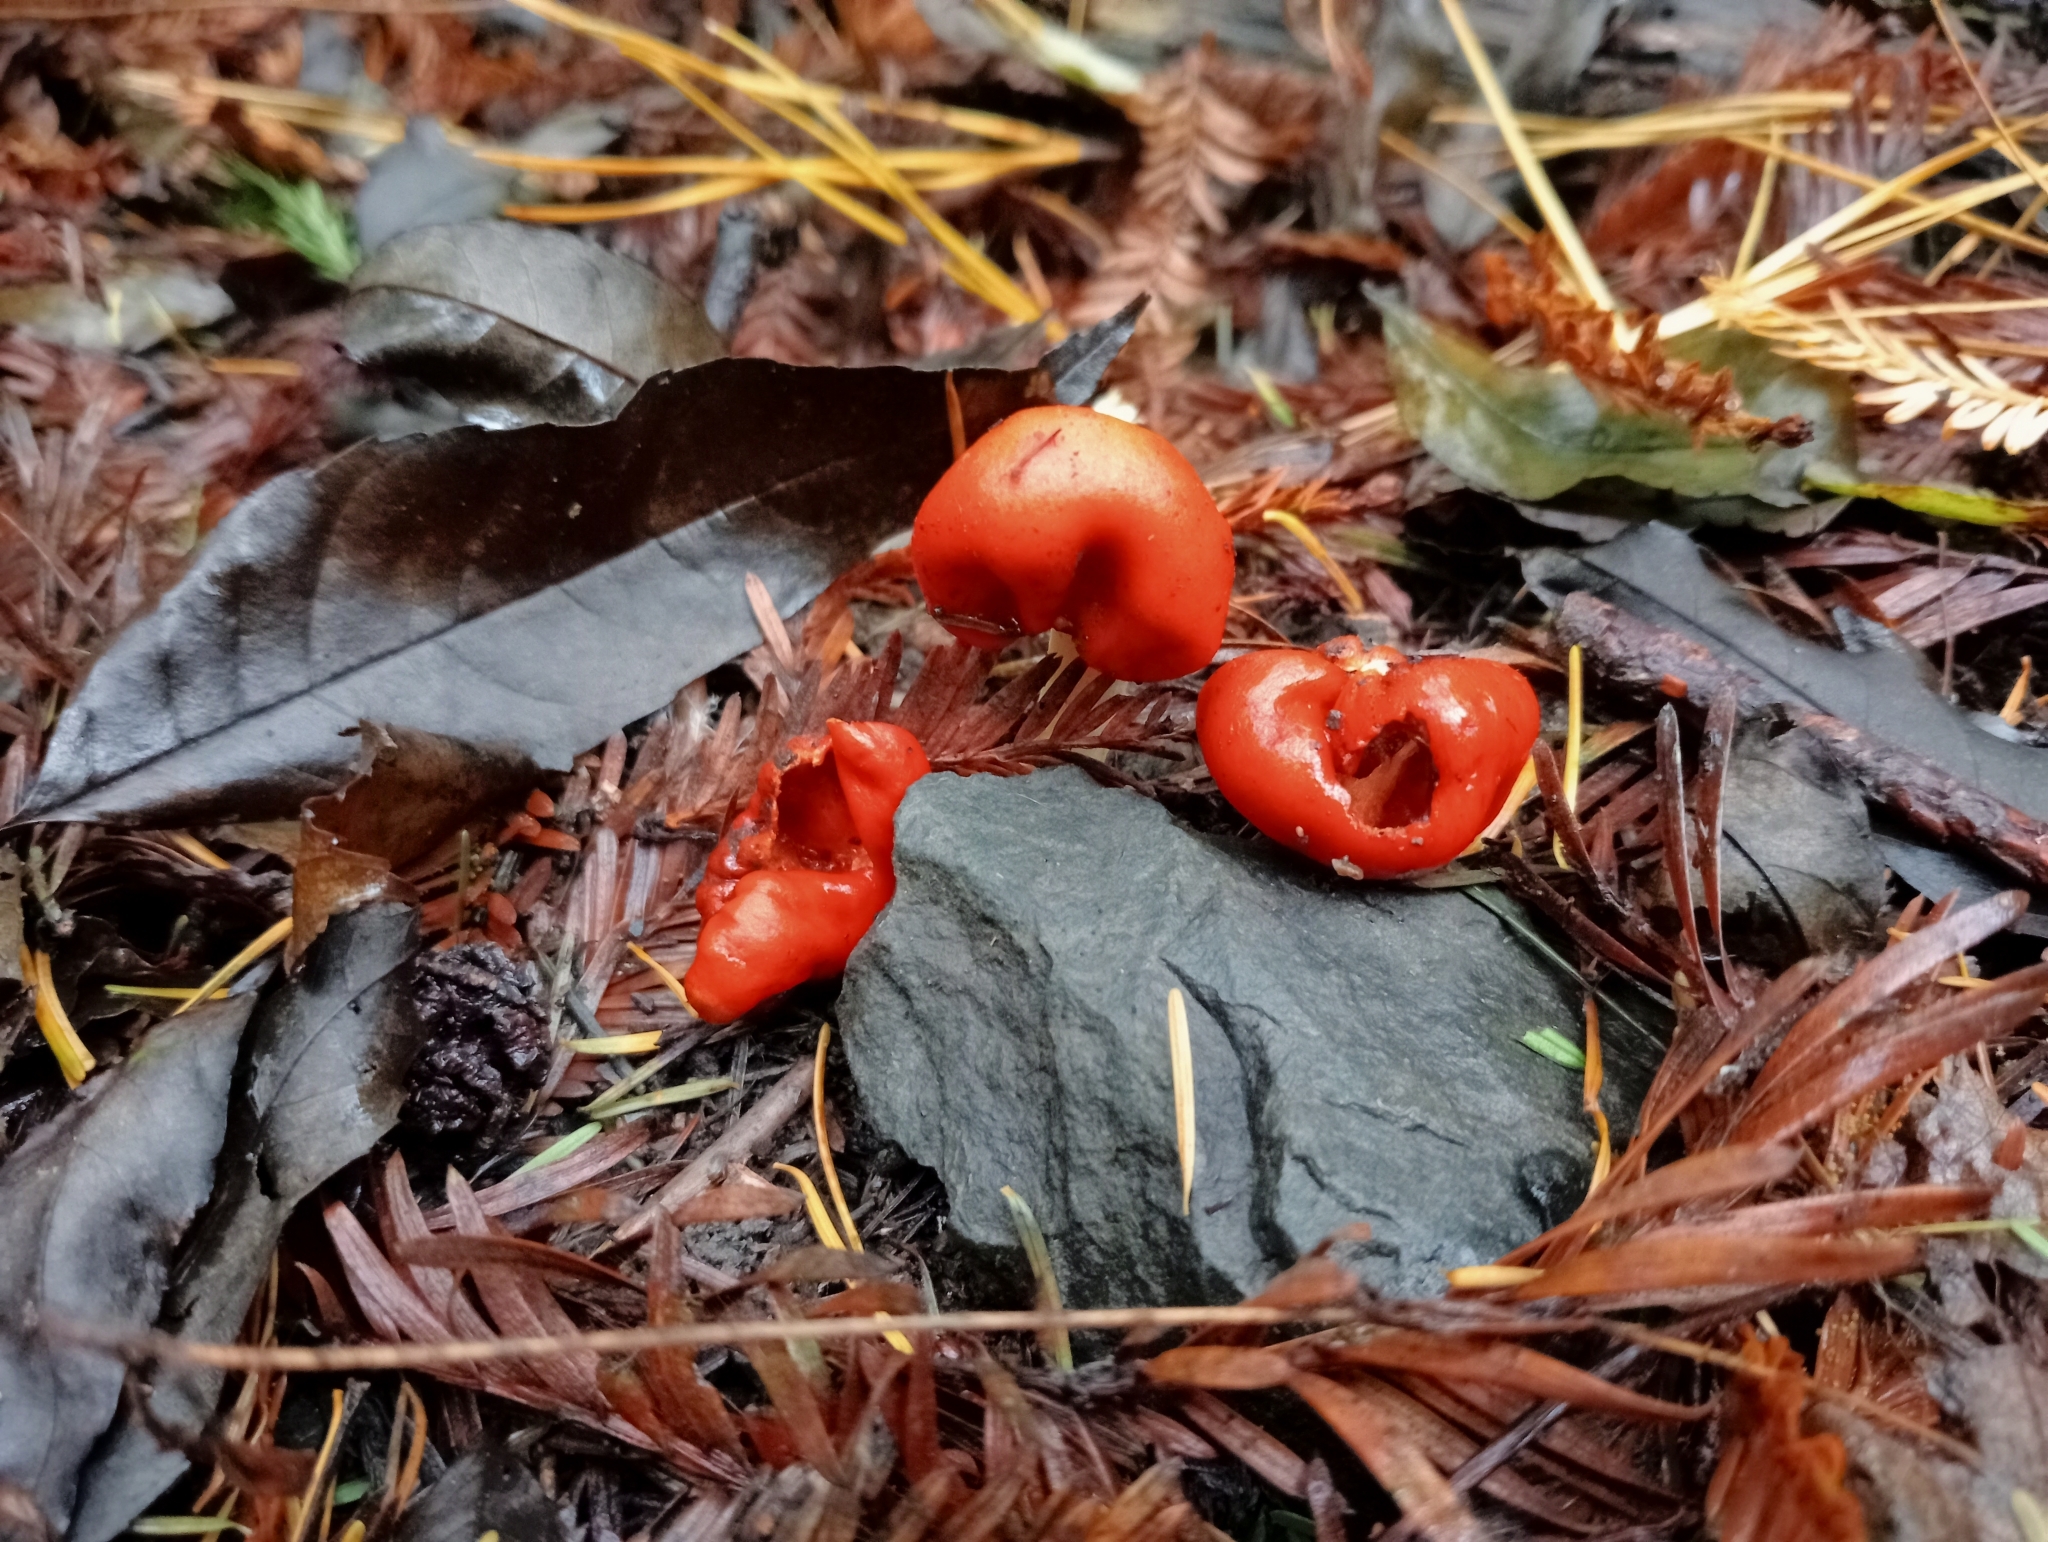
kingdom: Fungi
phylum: Basidiomycota
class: Agaricomycetes
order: Agaricales
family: Strophariaceae
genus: Leratiomyces
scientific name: Leratiomyces erythrocephalus
